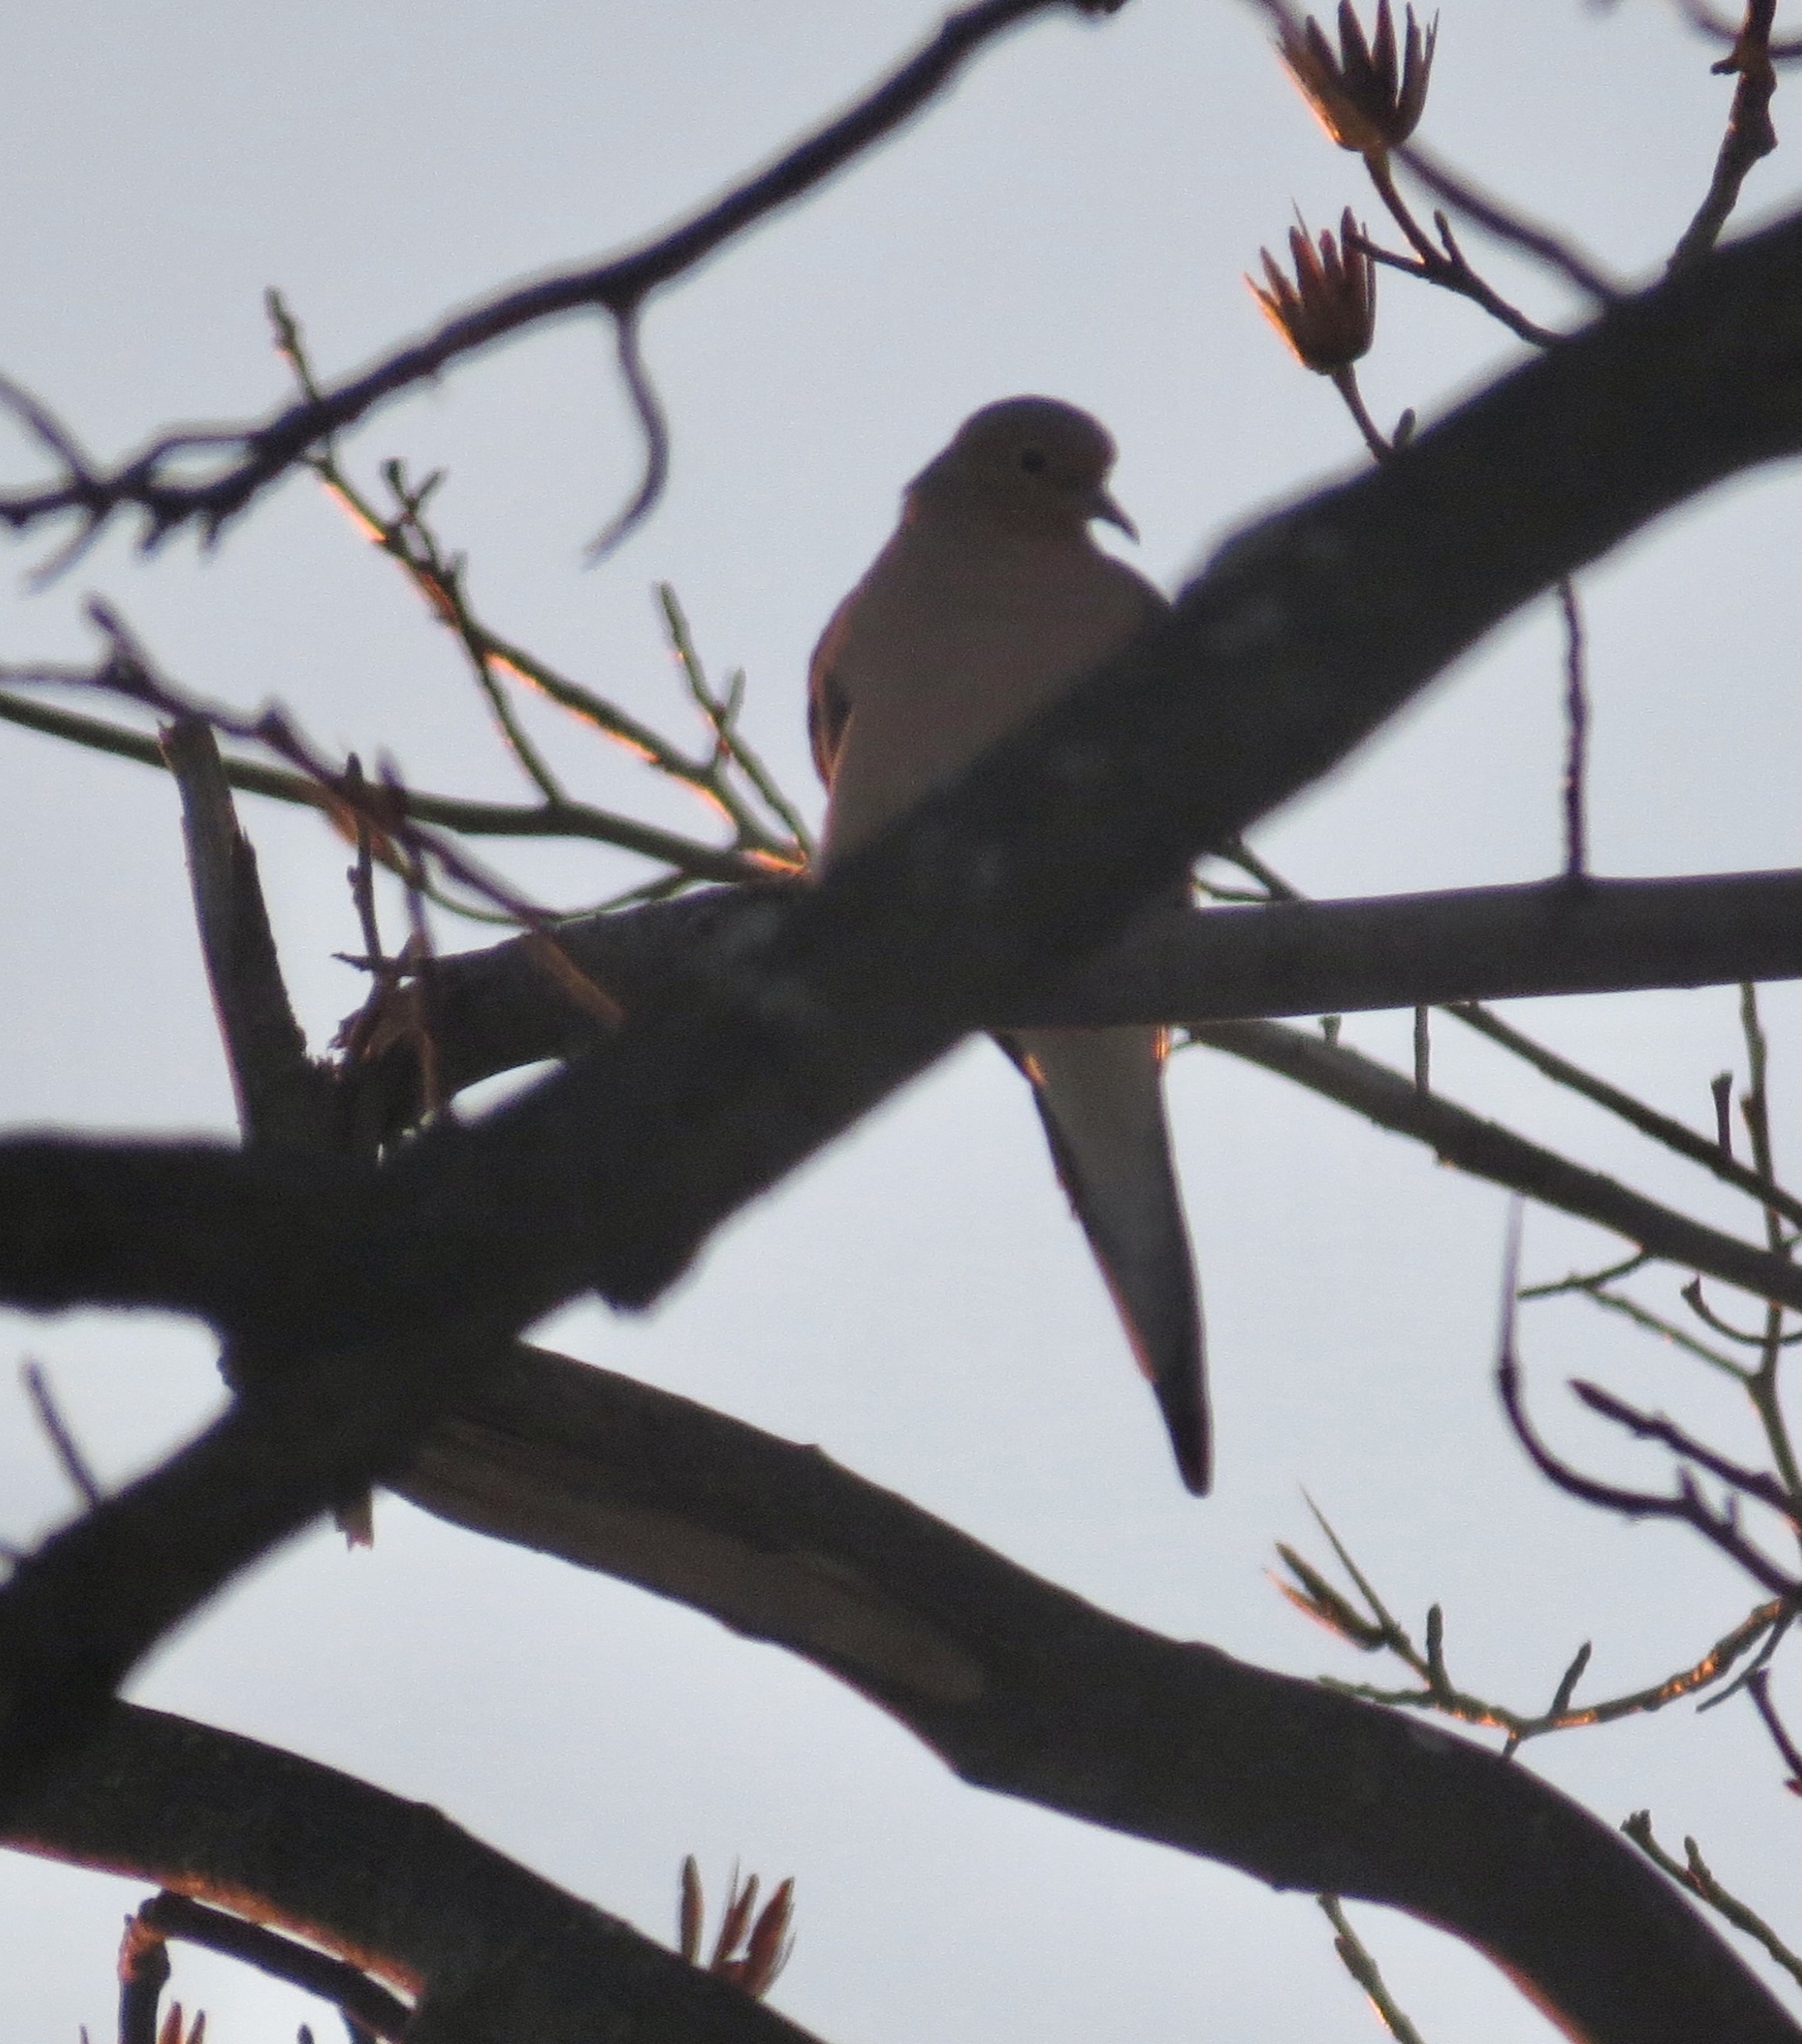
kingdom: Animalia
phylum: Chordata
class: Aves
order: Columbiformes
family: Columbidae
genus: Zenaida
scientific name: Zenaida macroura
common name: Mourning dove
